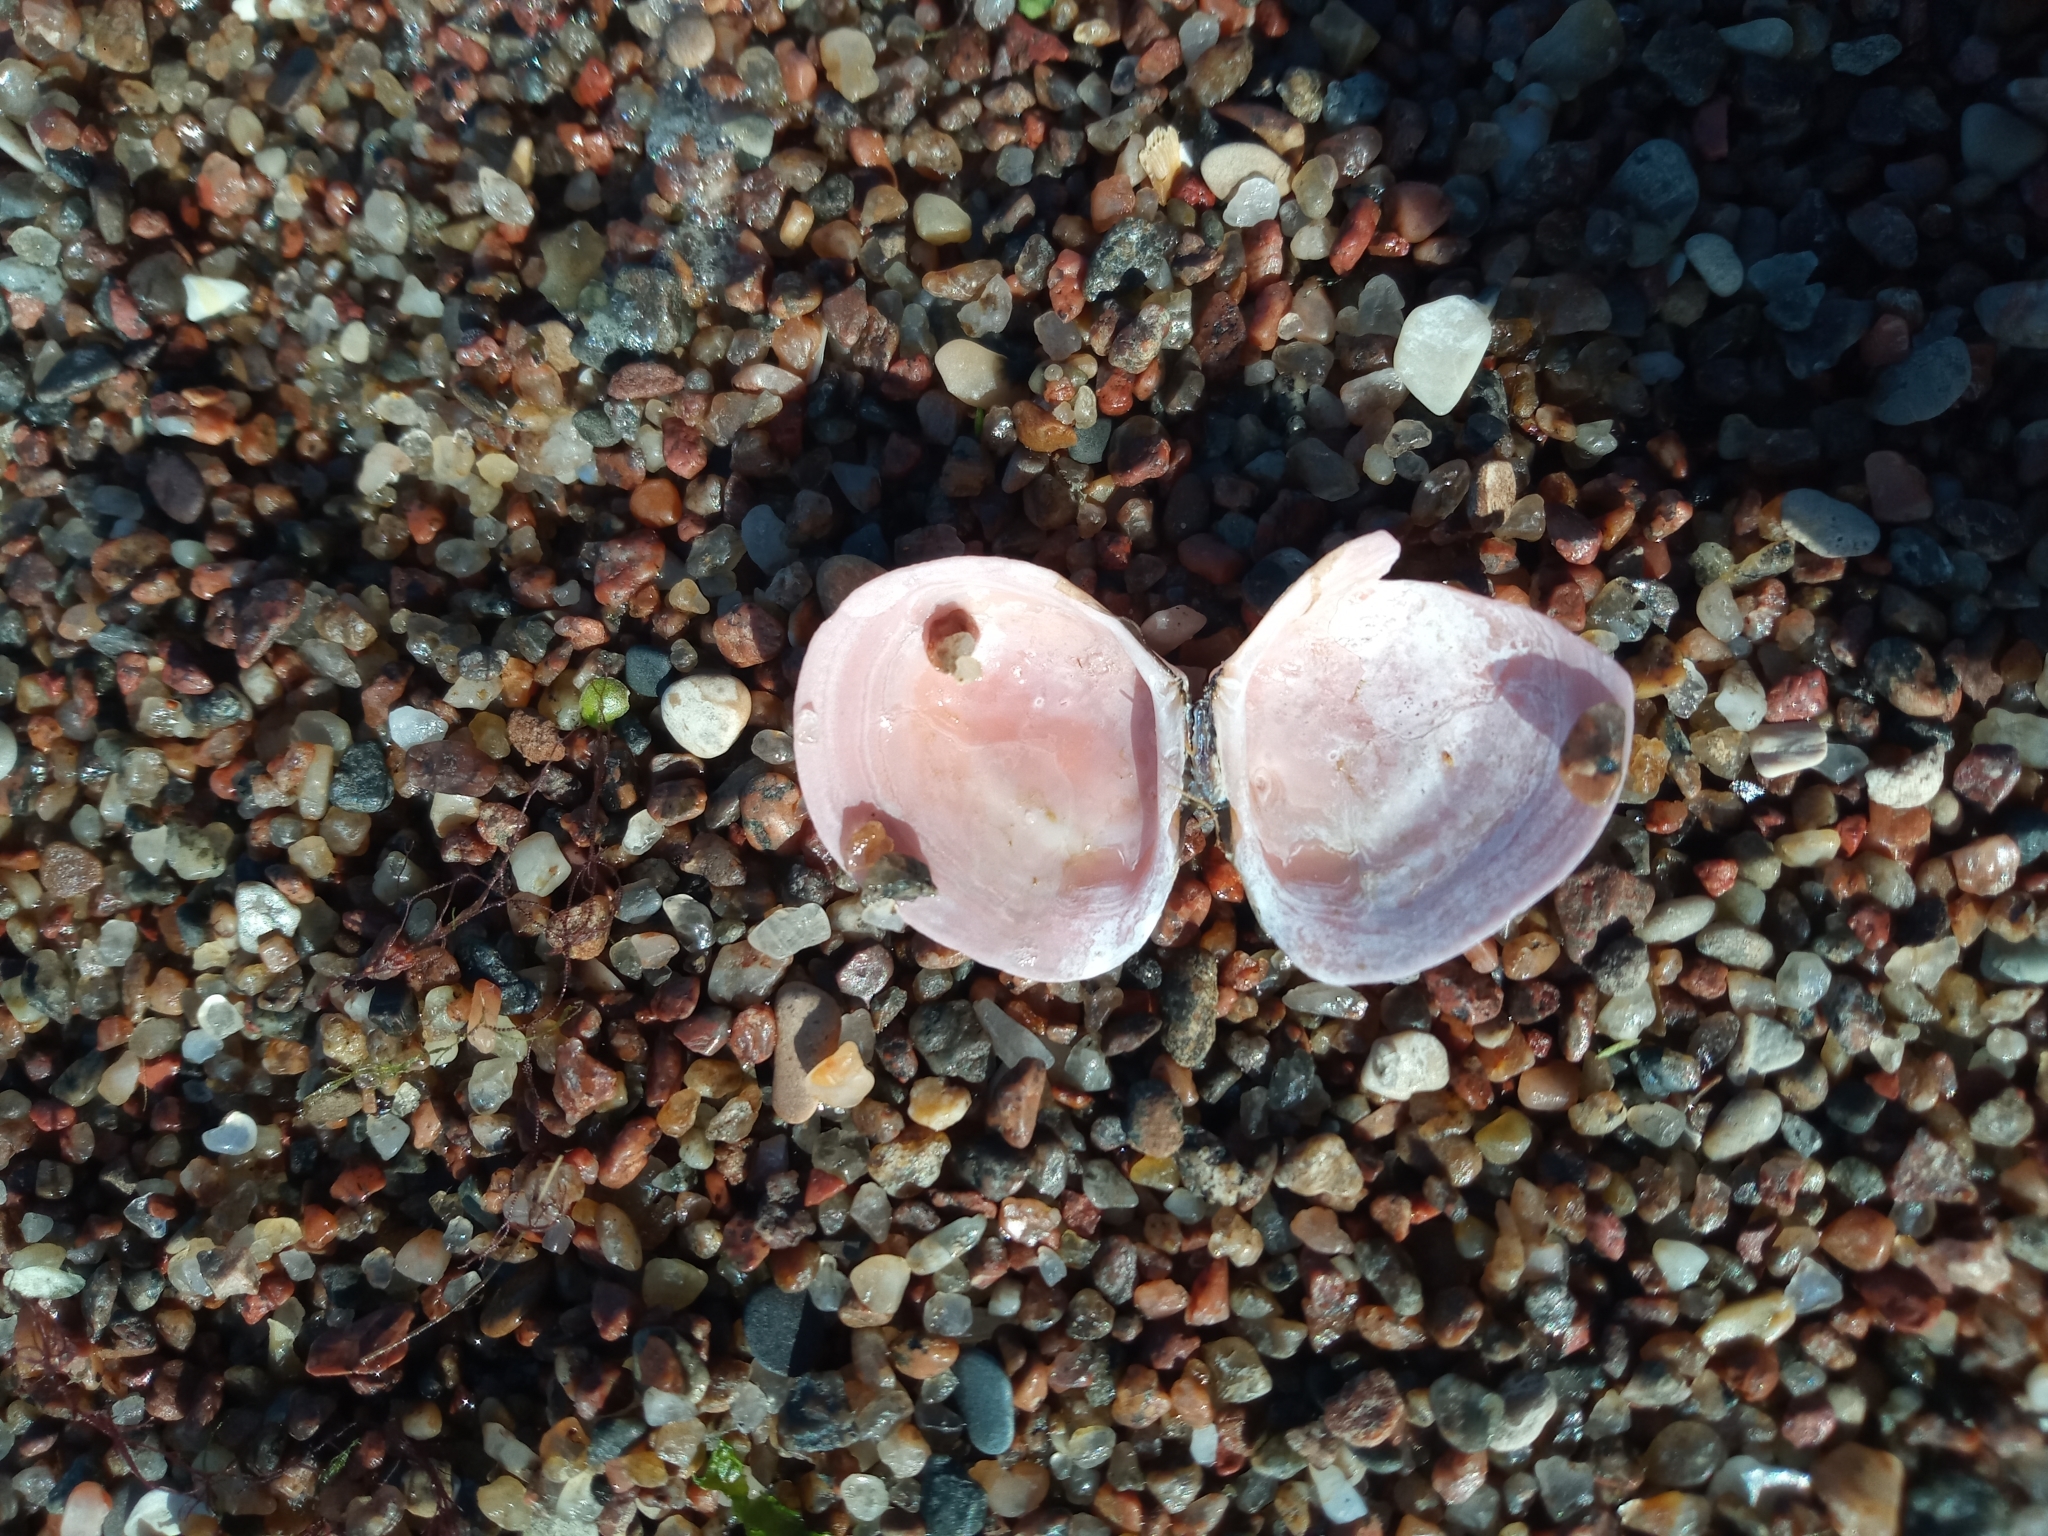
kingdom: Animalia
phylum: Mollusca
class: Bivalvia
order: Cardiida
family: Tellinidae
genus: Macoma
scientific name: Macoma balthica
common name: Baltic tellin
